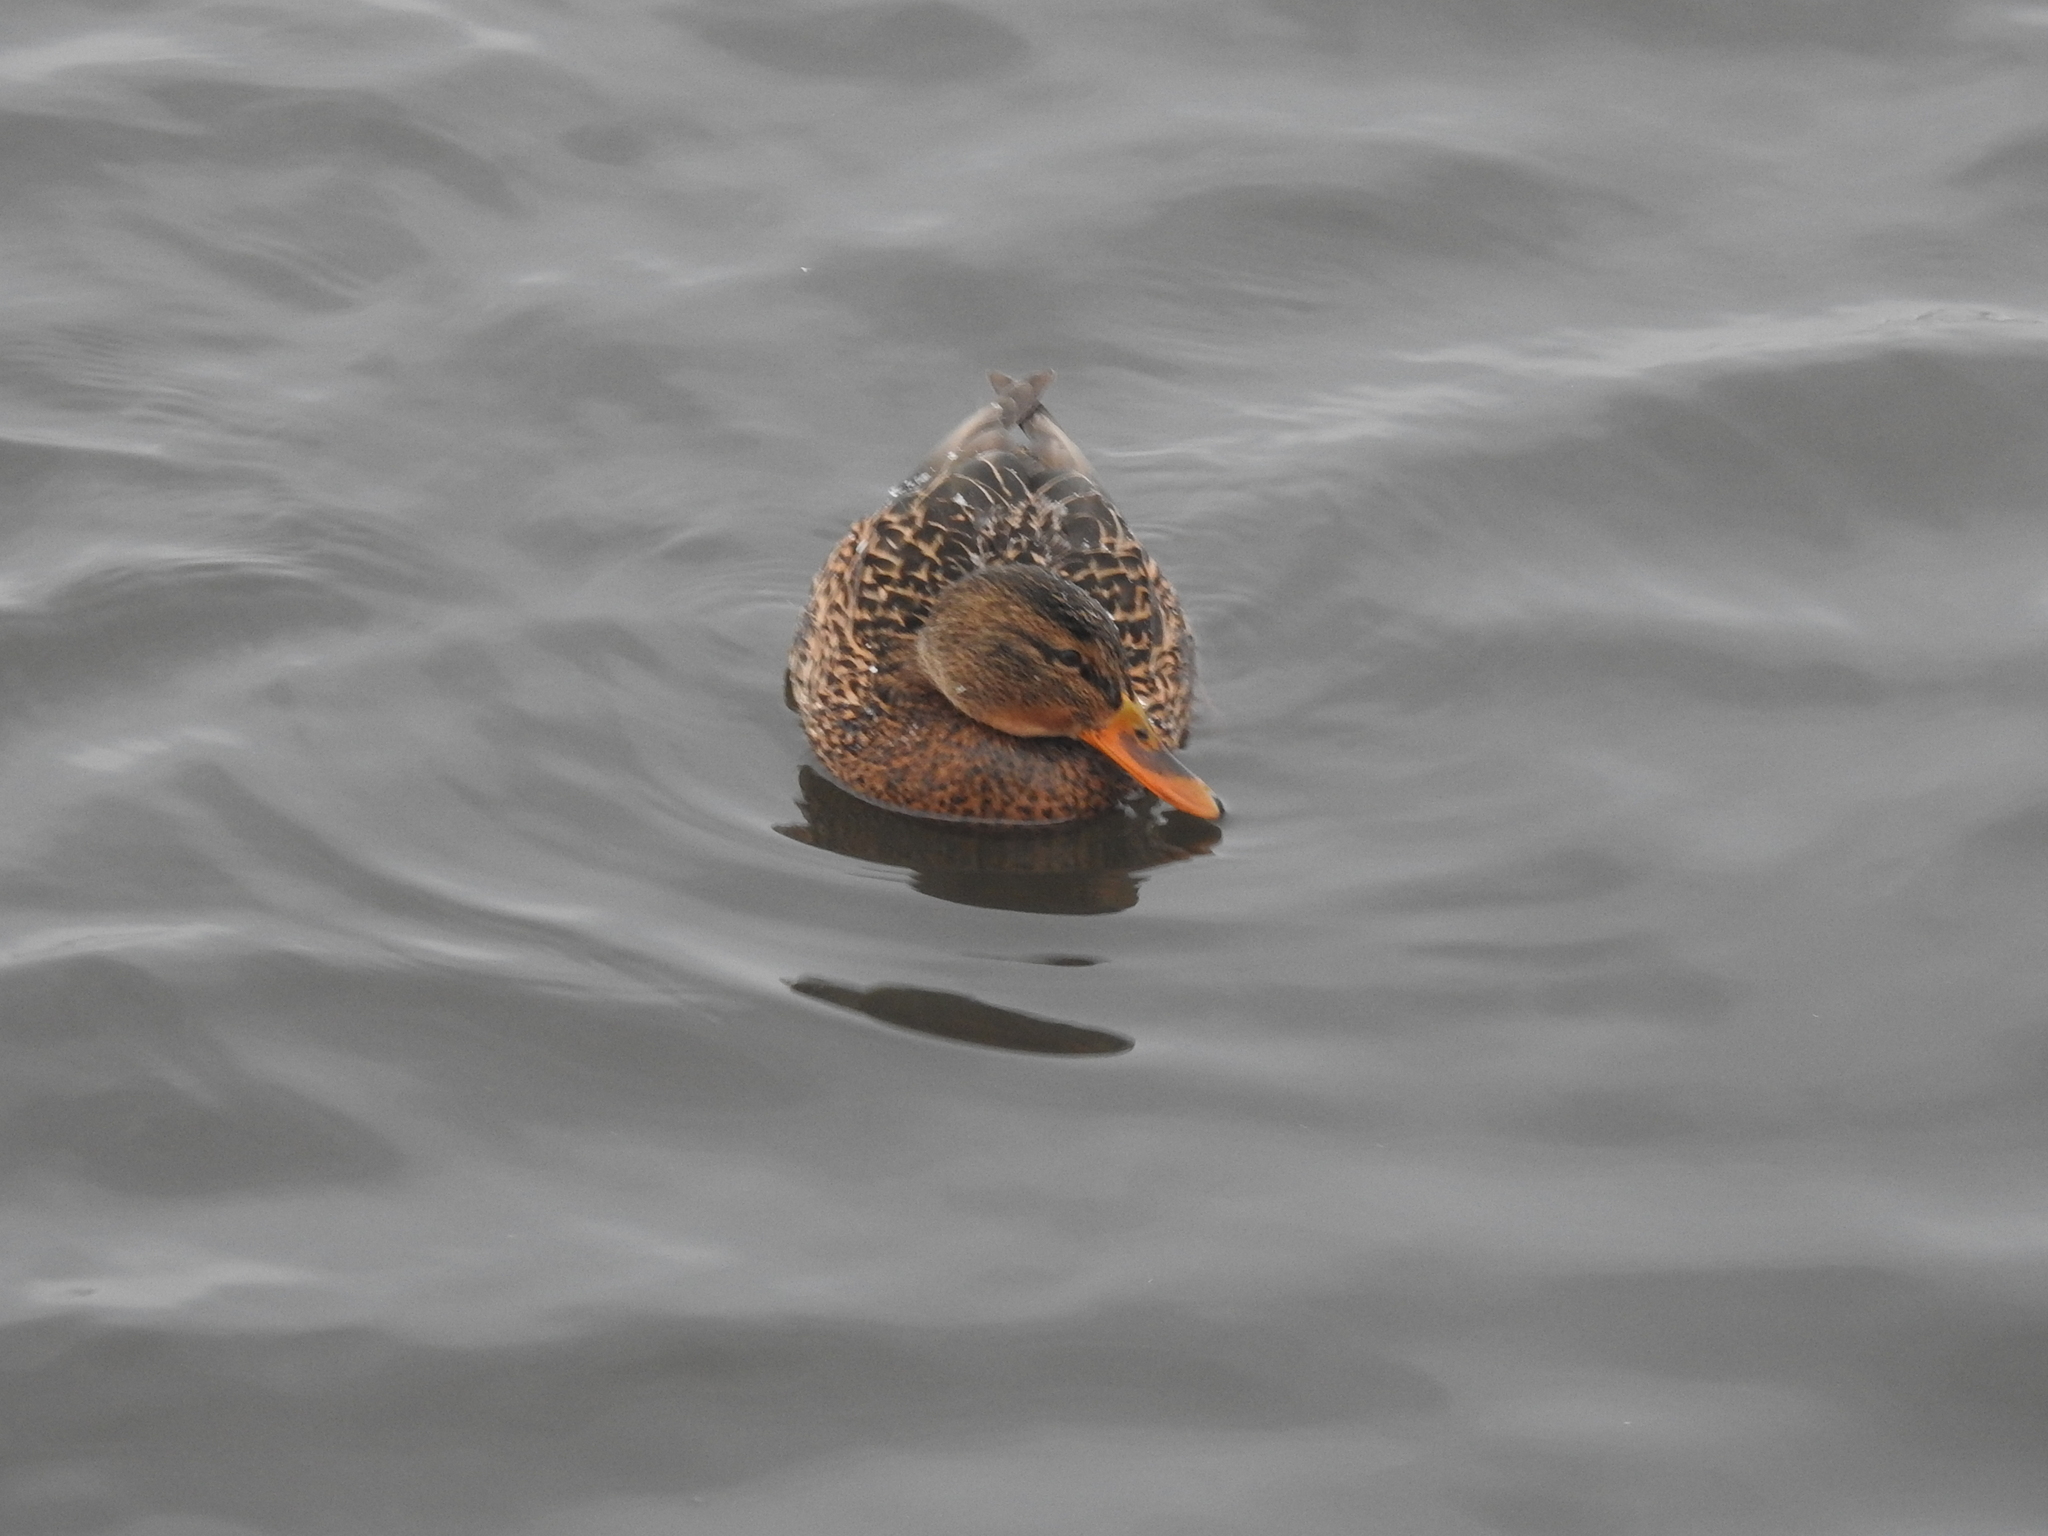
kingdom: Animalia
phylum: Chordata
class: Aves
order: Anseriformes
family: Anatidae
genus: Anas
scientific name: Anas platyrhynchos
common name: Mallard
